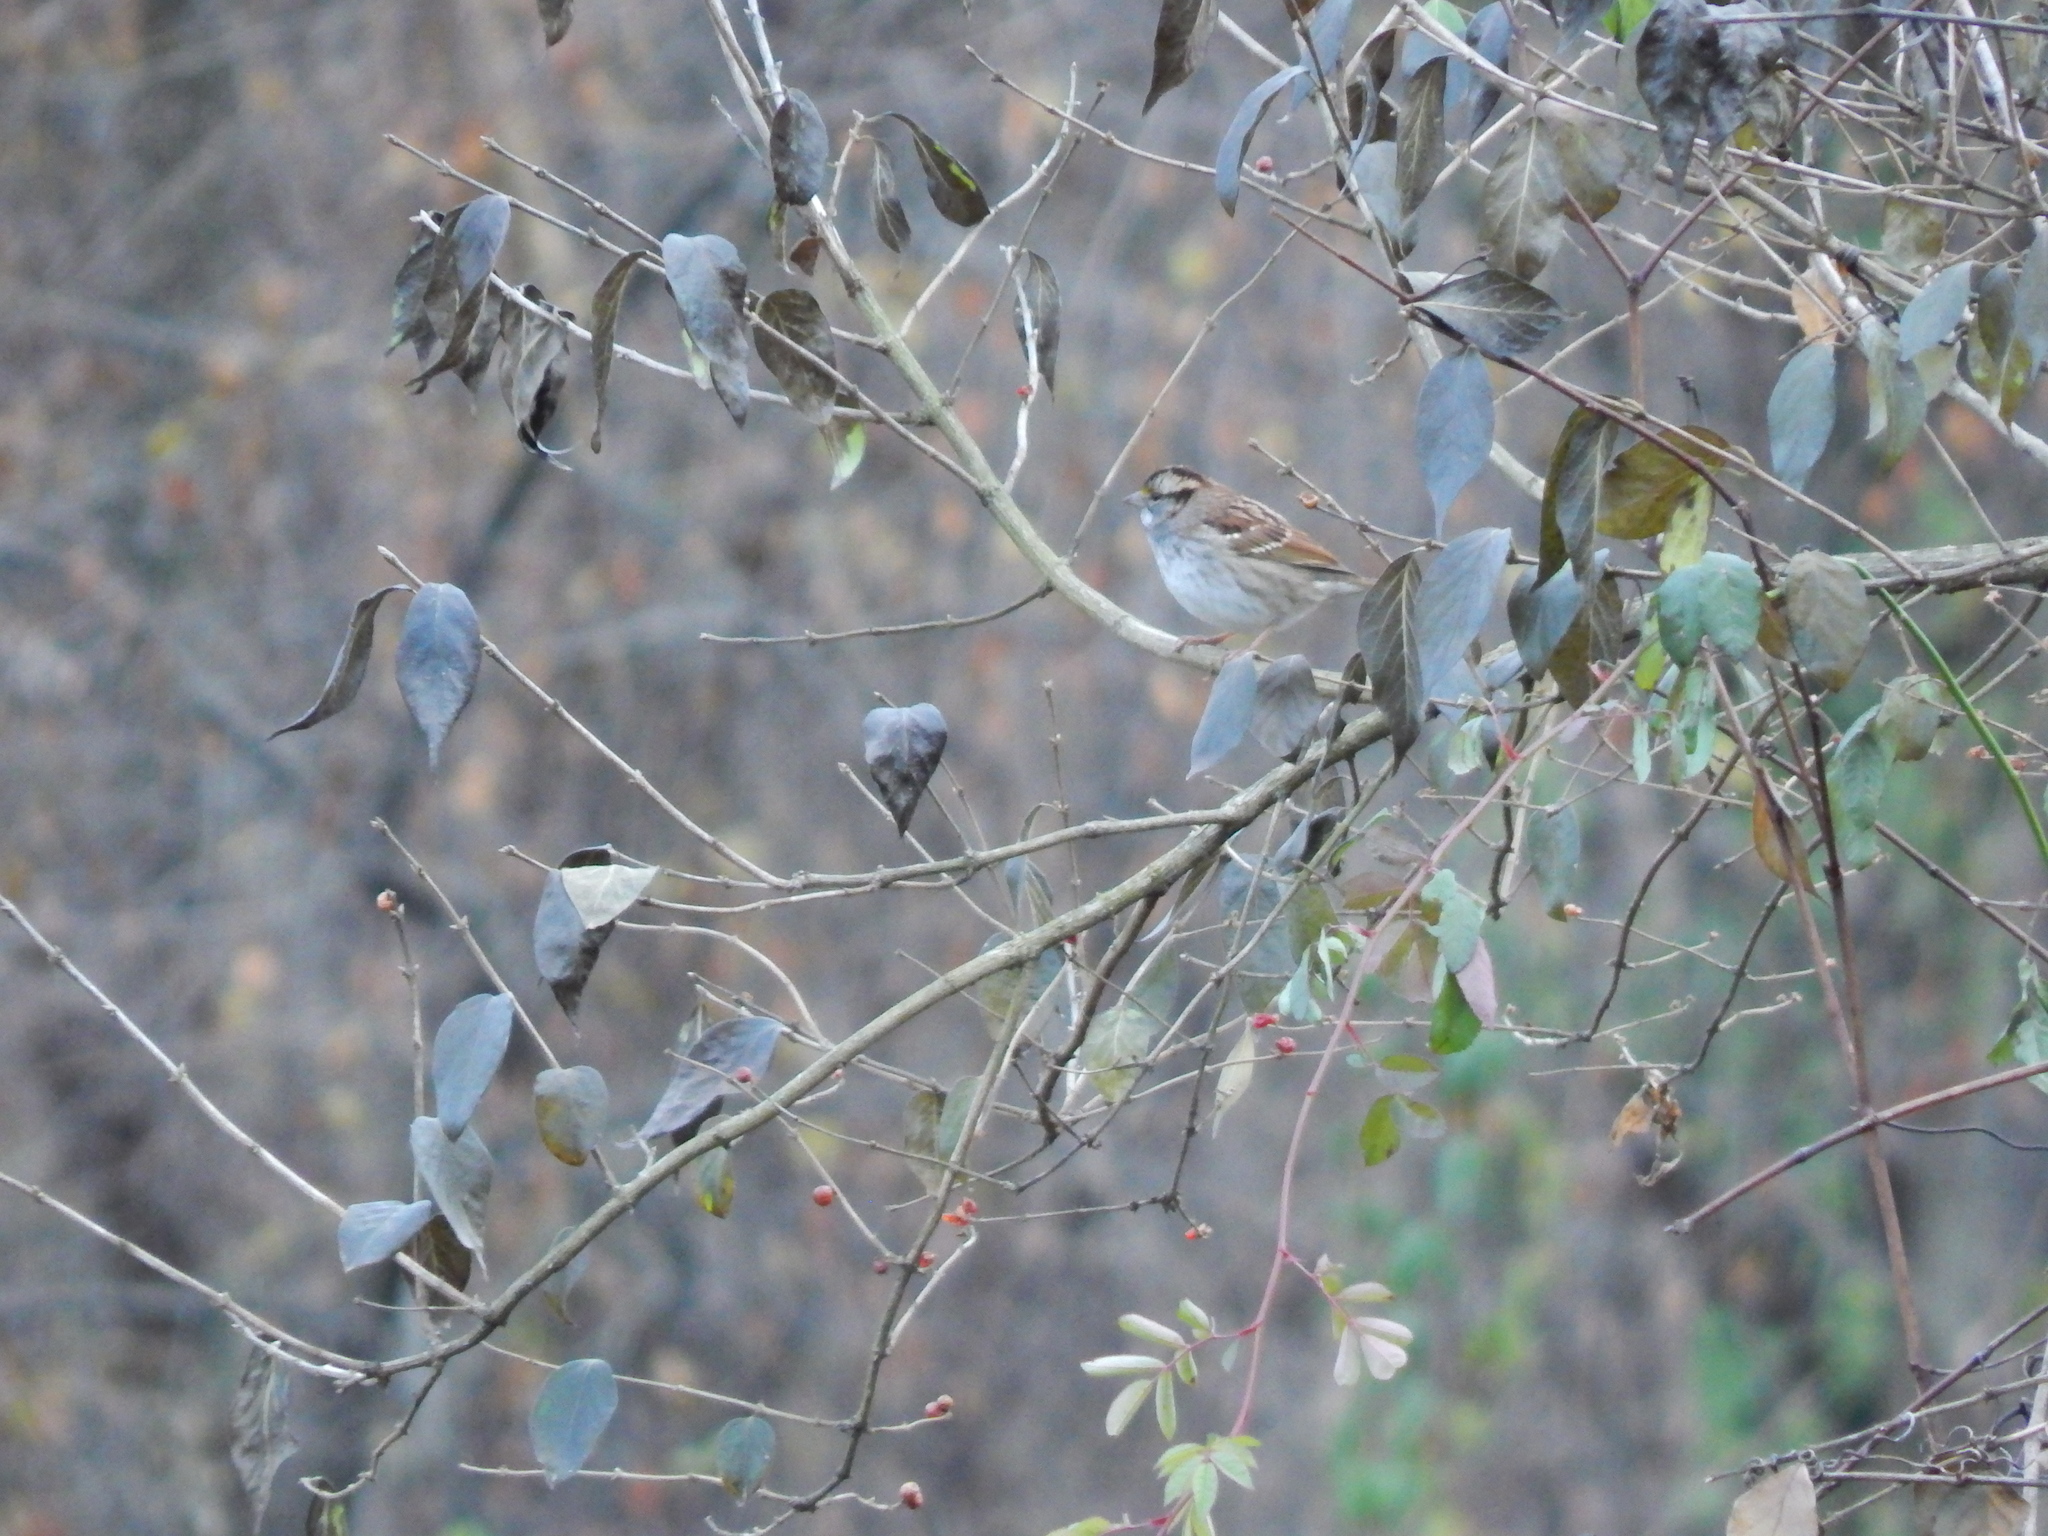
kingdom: Animalia
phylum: Chordata
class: Aves
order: Passeriformes
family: Passerellidae
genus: Zonotrichia
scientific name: Zonotrichia albicollis
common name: White-throated sparrow
